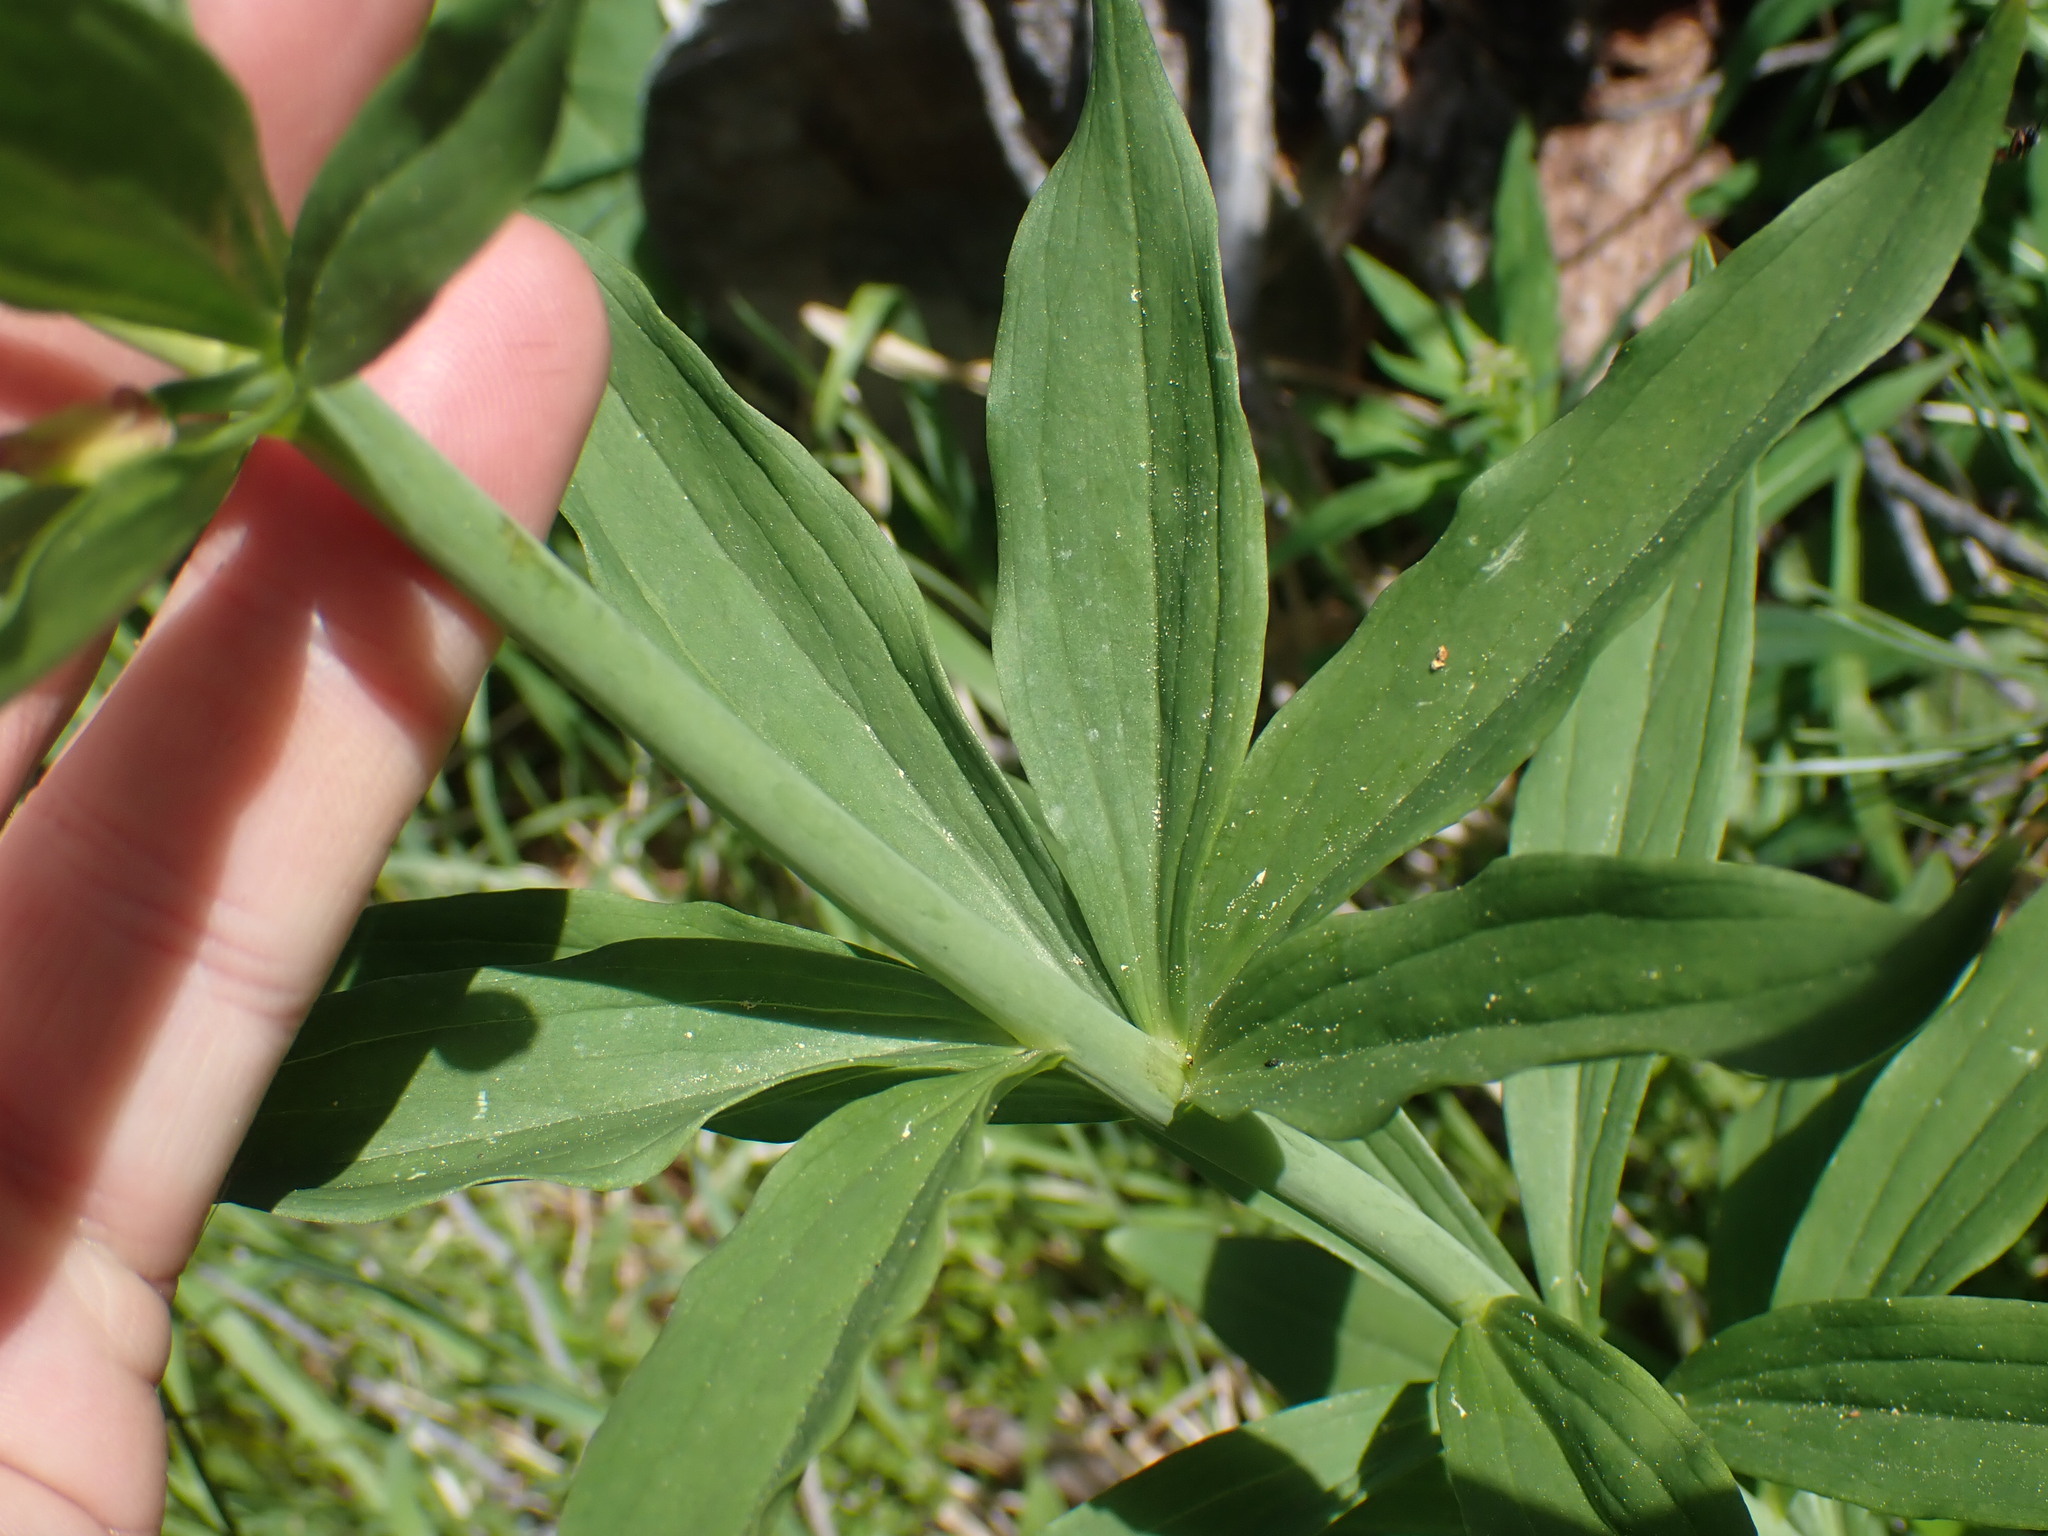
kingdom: Plantae
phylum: Tracheophyta
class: Liliopsida
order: Liliales
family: Liliaceae
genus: Lilium
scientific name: Lilium columbianum
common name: Columbia lily
